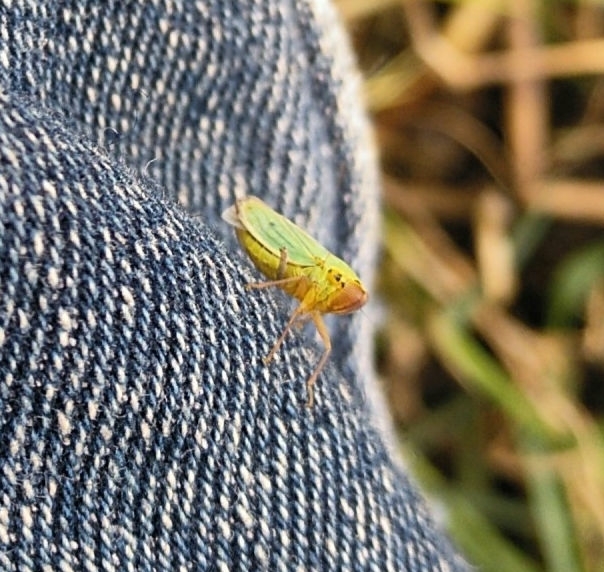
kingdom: Animalia
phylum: Arthropoda
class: Insecta
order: Hemiptera
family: Cicadellidae
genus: Cicadella
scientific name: Cicadella viridis
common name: Leafhopper
